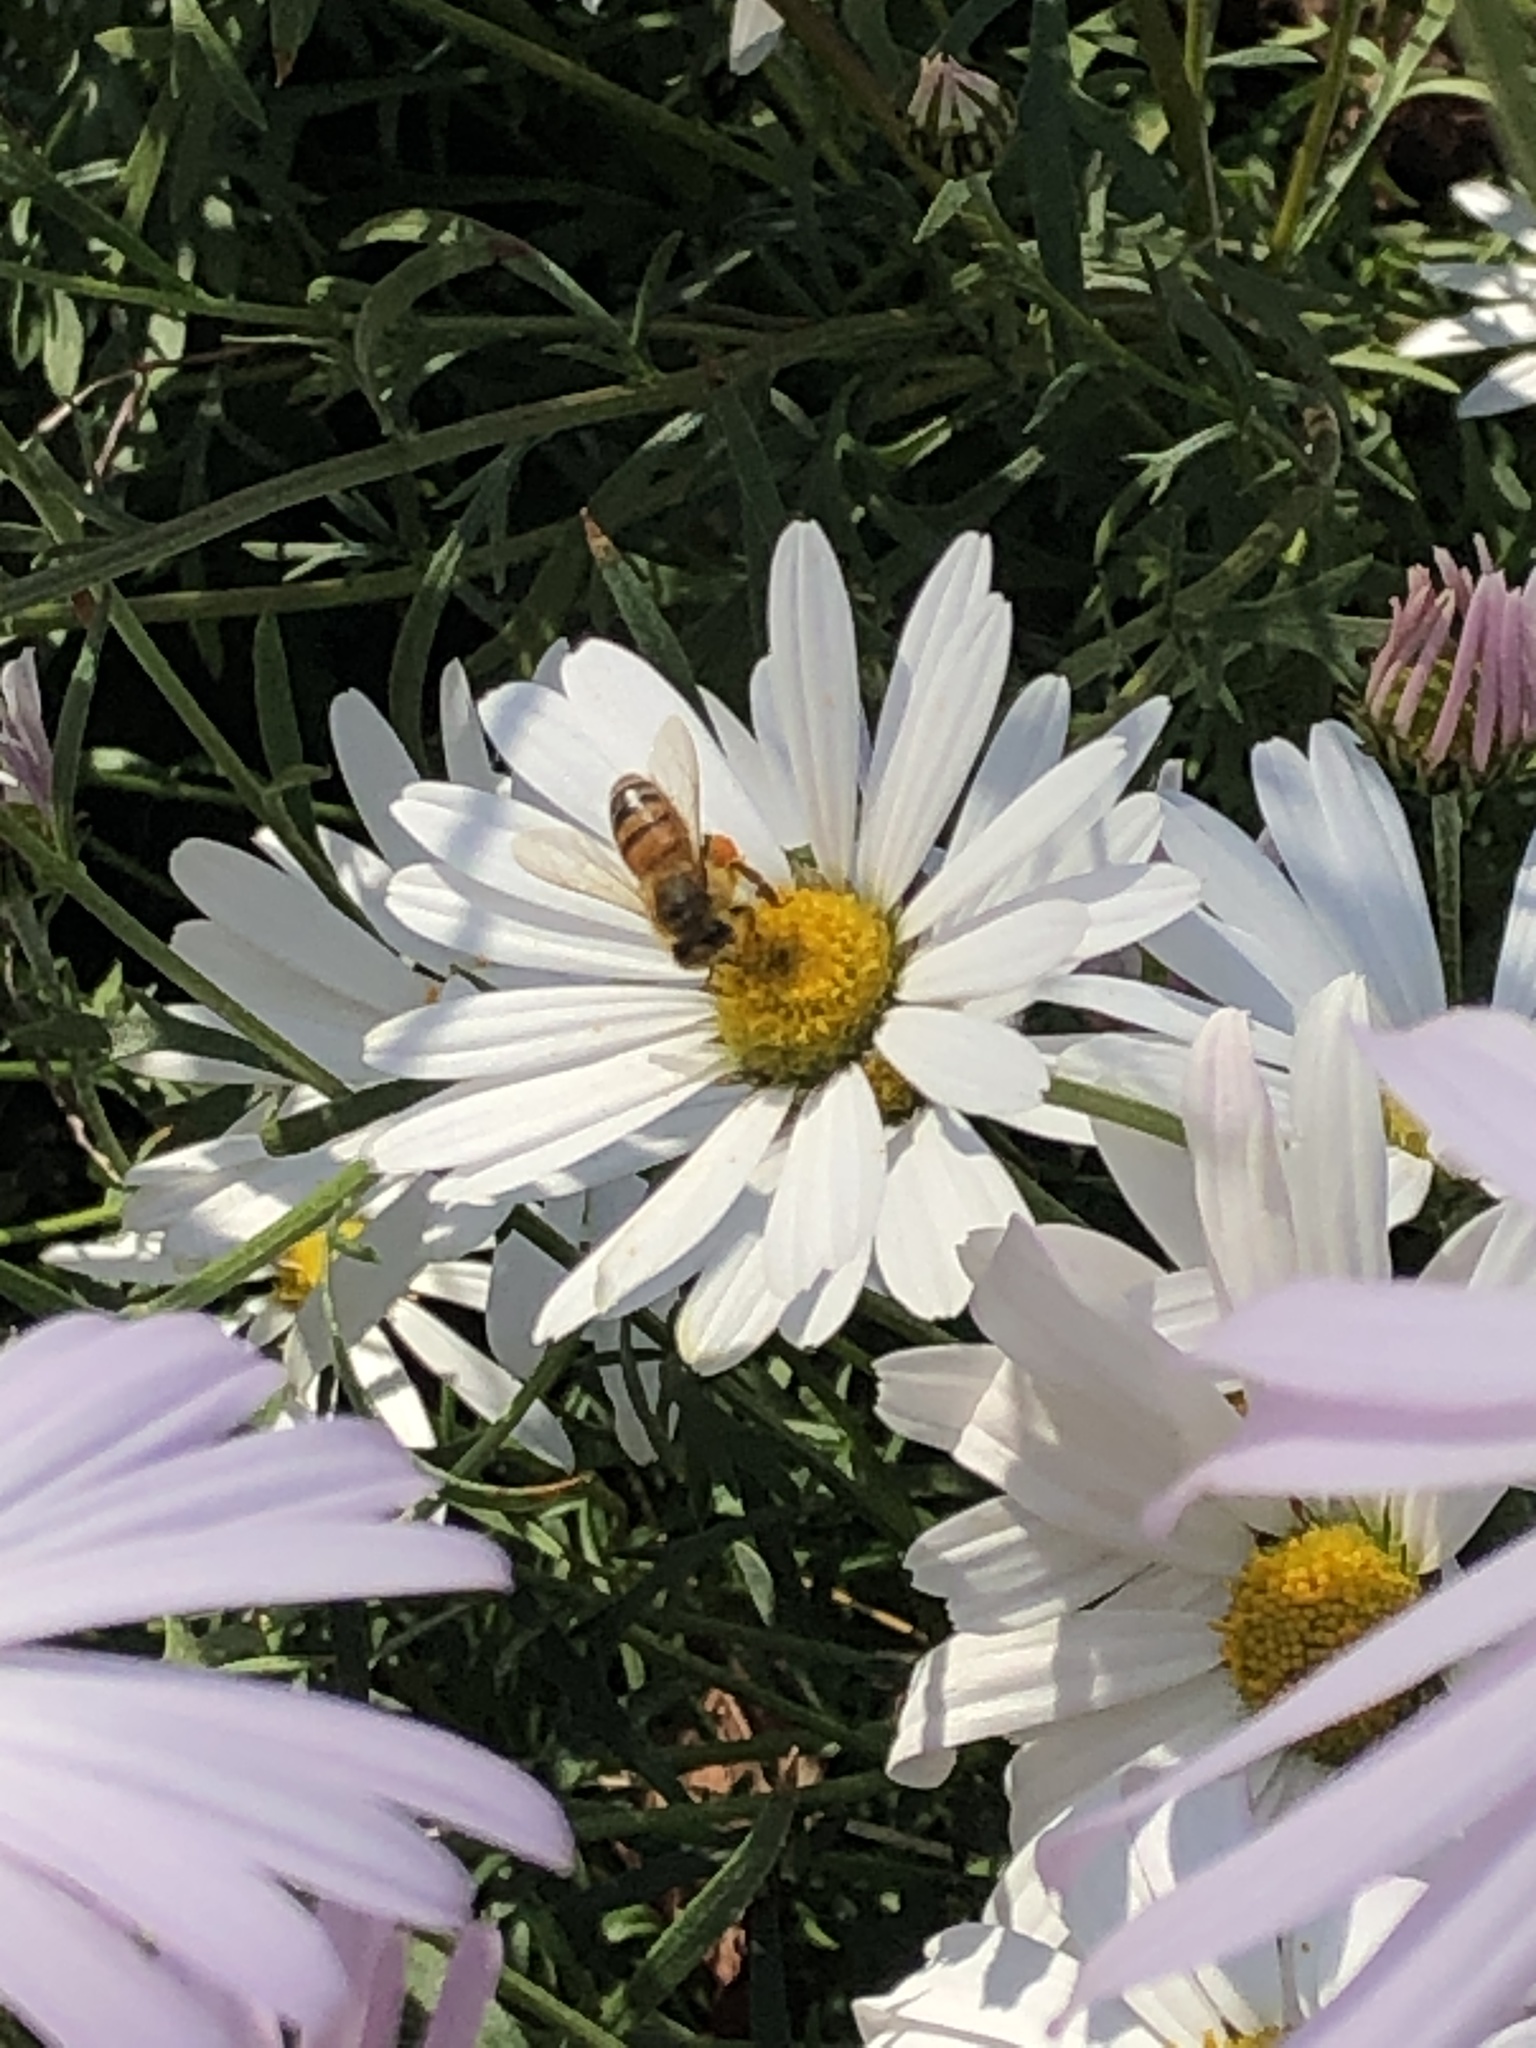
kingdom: Animalia
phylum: Arthropoda
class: Insecta
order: Hymenoptera
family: Apidae
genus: Apis
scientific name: Apis mellifera
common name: Honey bee
